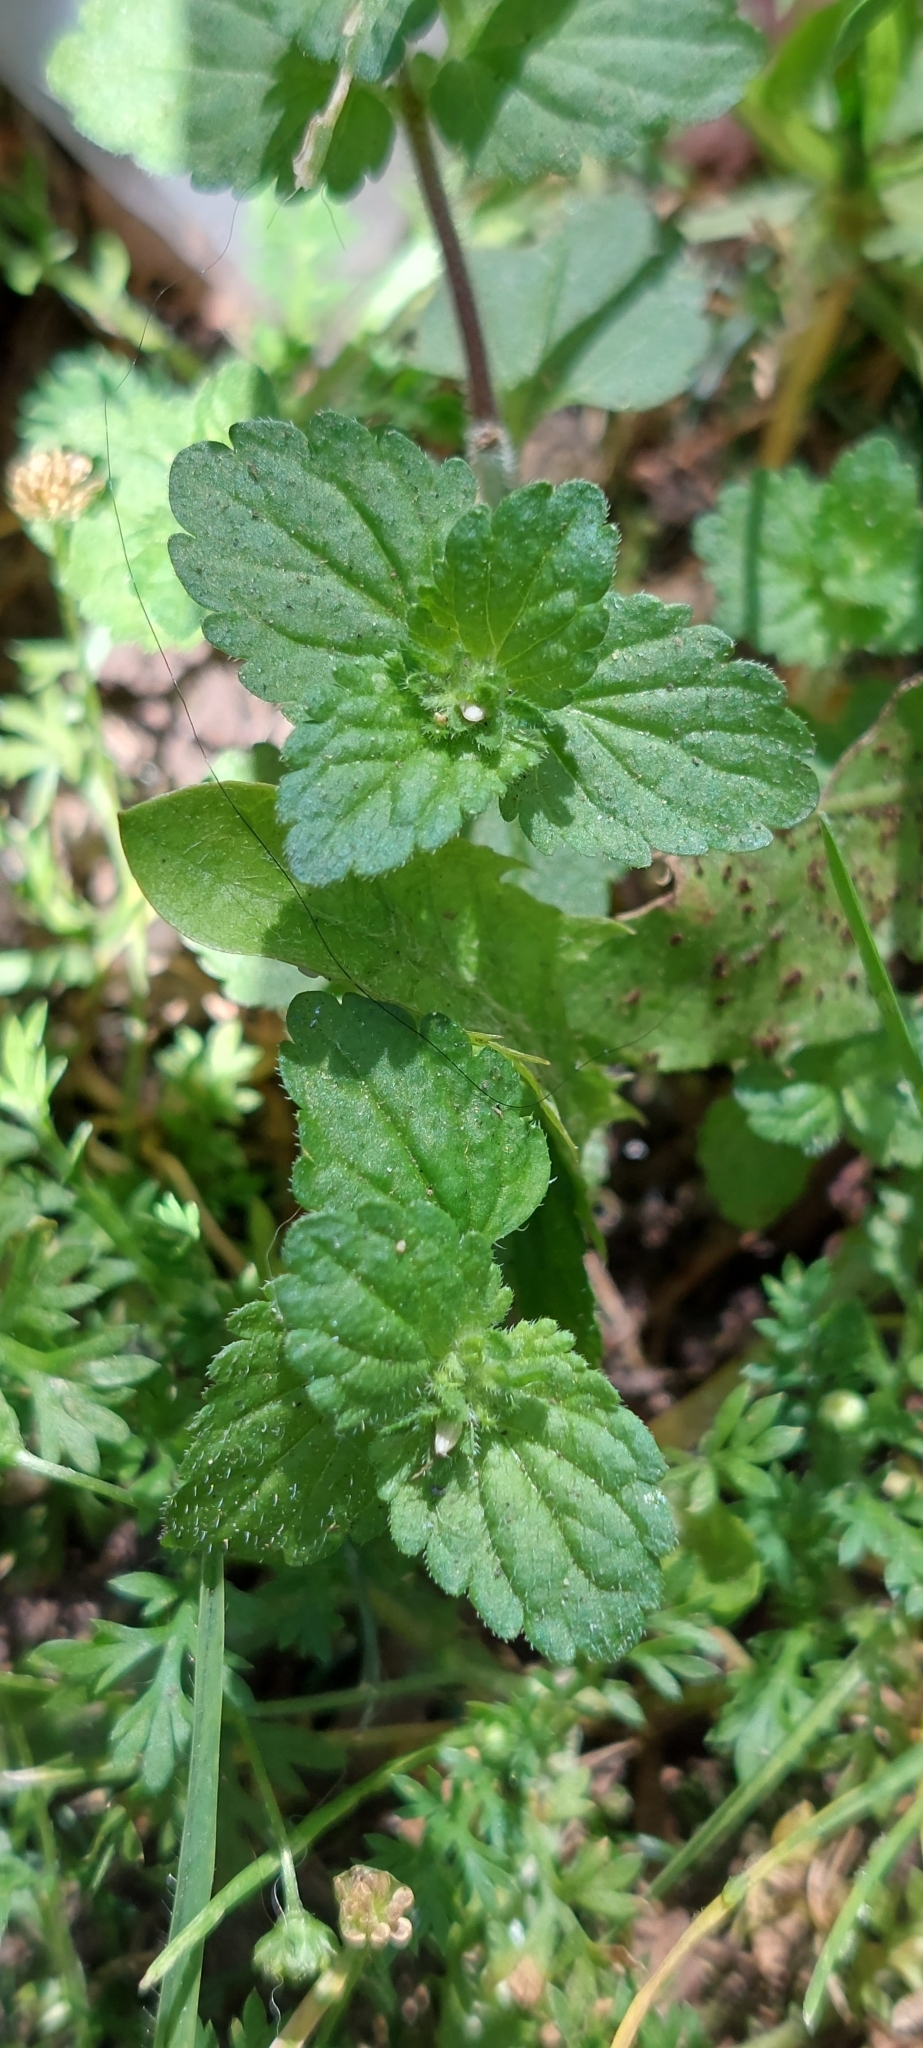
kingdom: Plantae
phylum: Tracheophyta
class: Magnoliopsida
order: Lamiales
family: Plantaginaceae
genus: Veronica
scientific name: Veronica javanica
